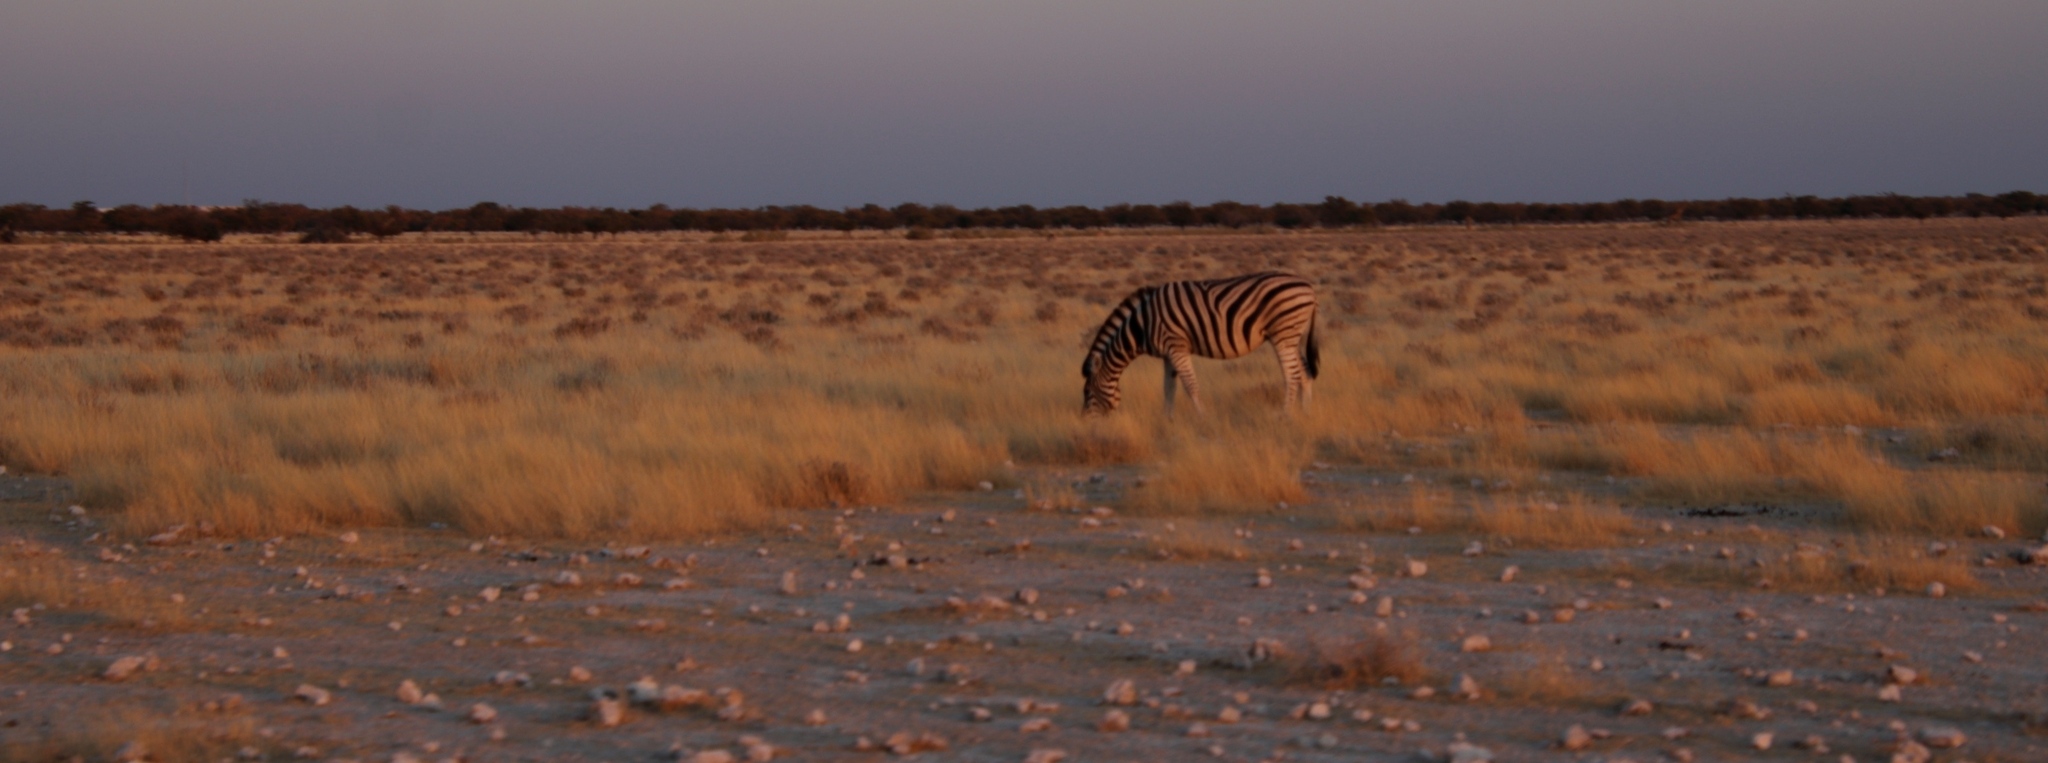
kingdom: Animalia
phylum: Chordata
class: Mammalia
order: Perissodactyla
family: Equidae
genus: Equus
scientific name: Equus quagga
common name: Plains zebra
